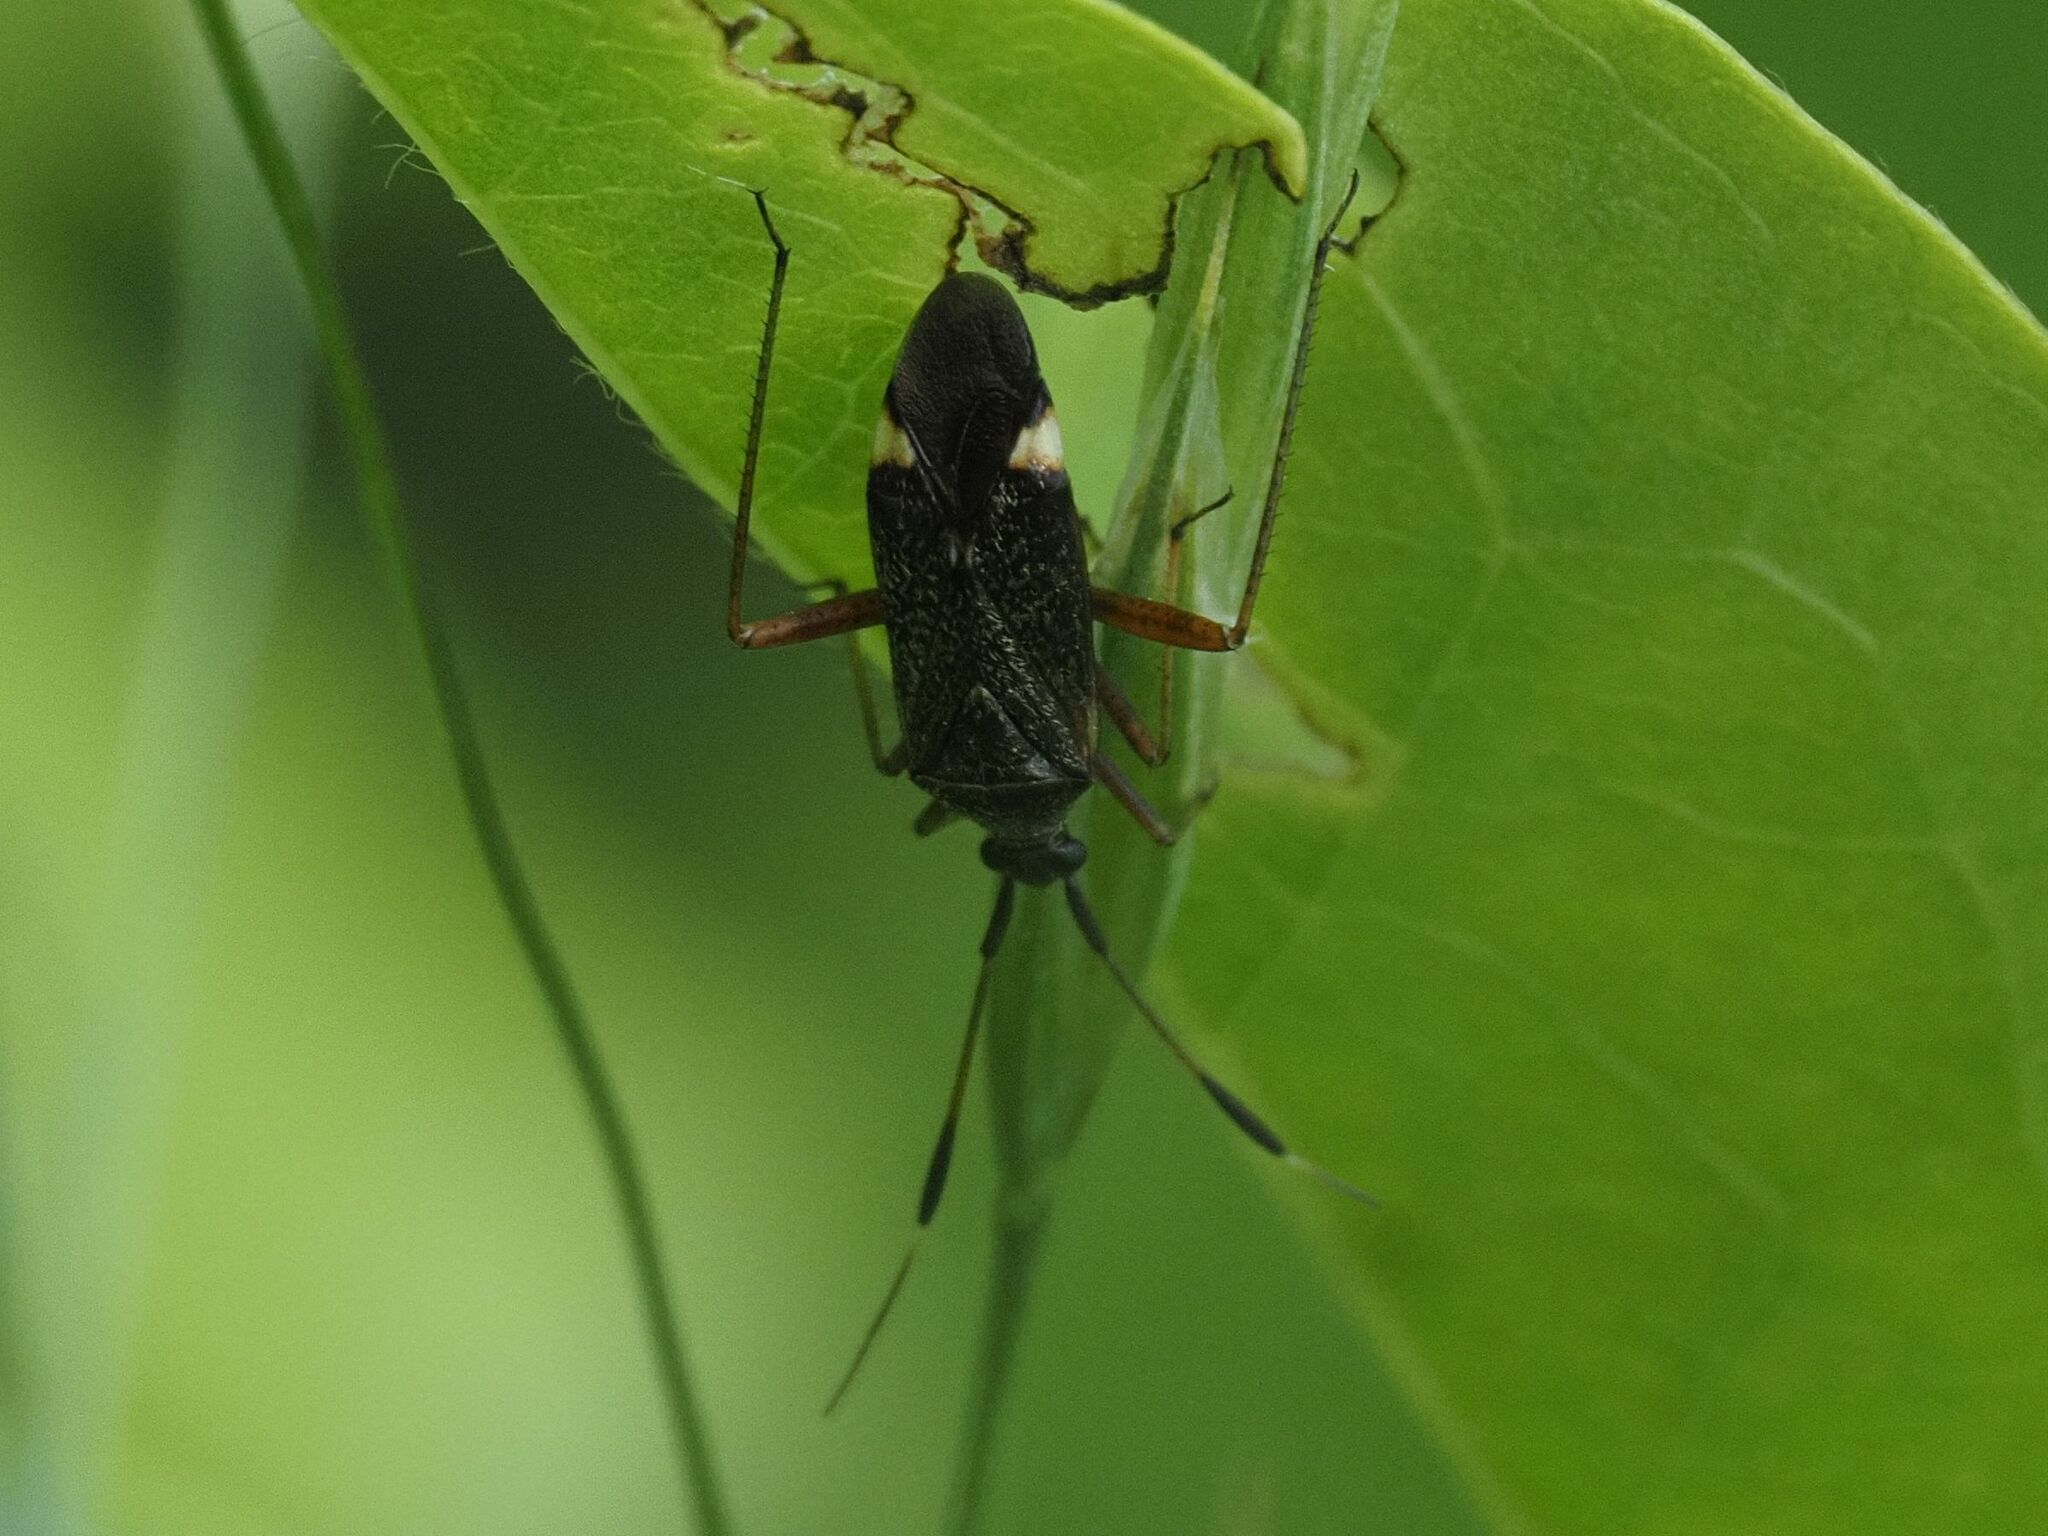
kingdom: Animalia
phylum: Arthropoda
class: Insecta
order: Hemiptera
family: Miridae
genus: Closterotomus
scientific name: Closterotomus biclavatus
